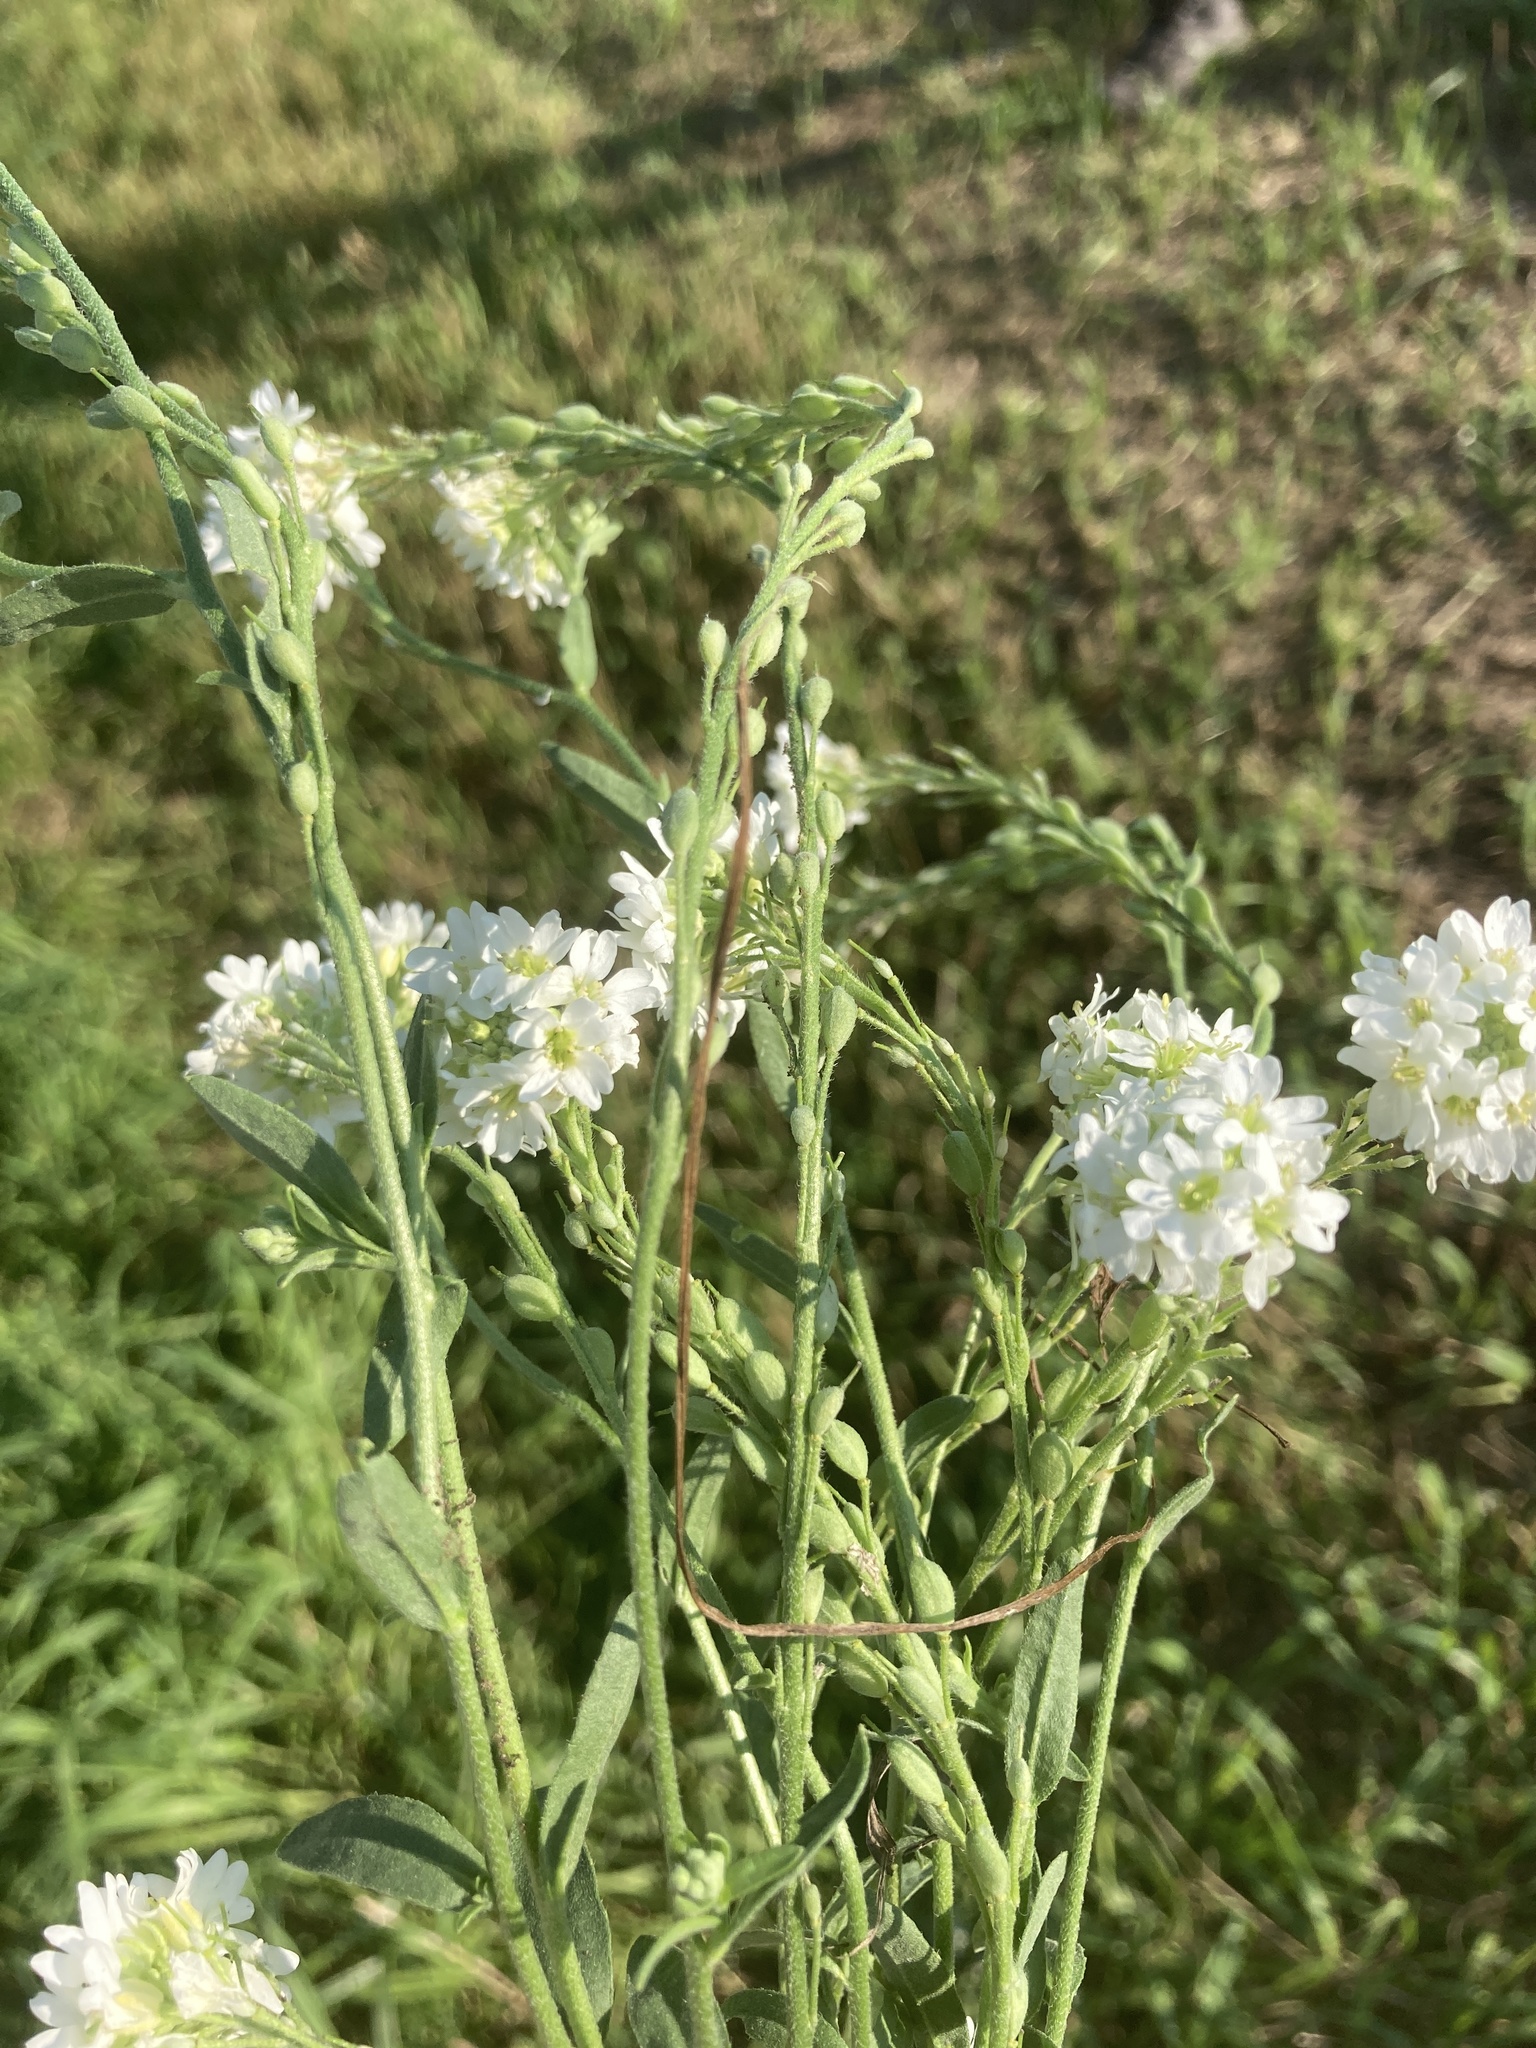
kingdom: Plantae
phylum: Tracheophyta
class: Magnoliopsida
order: Brassicales
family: Brassicaceae
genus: Berteroa
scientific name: Berteroa incana
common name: Hoary alison
